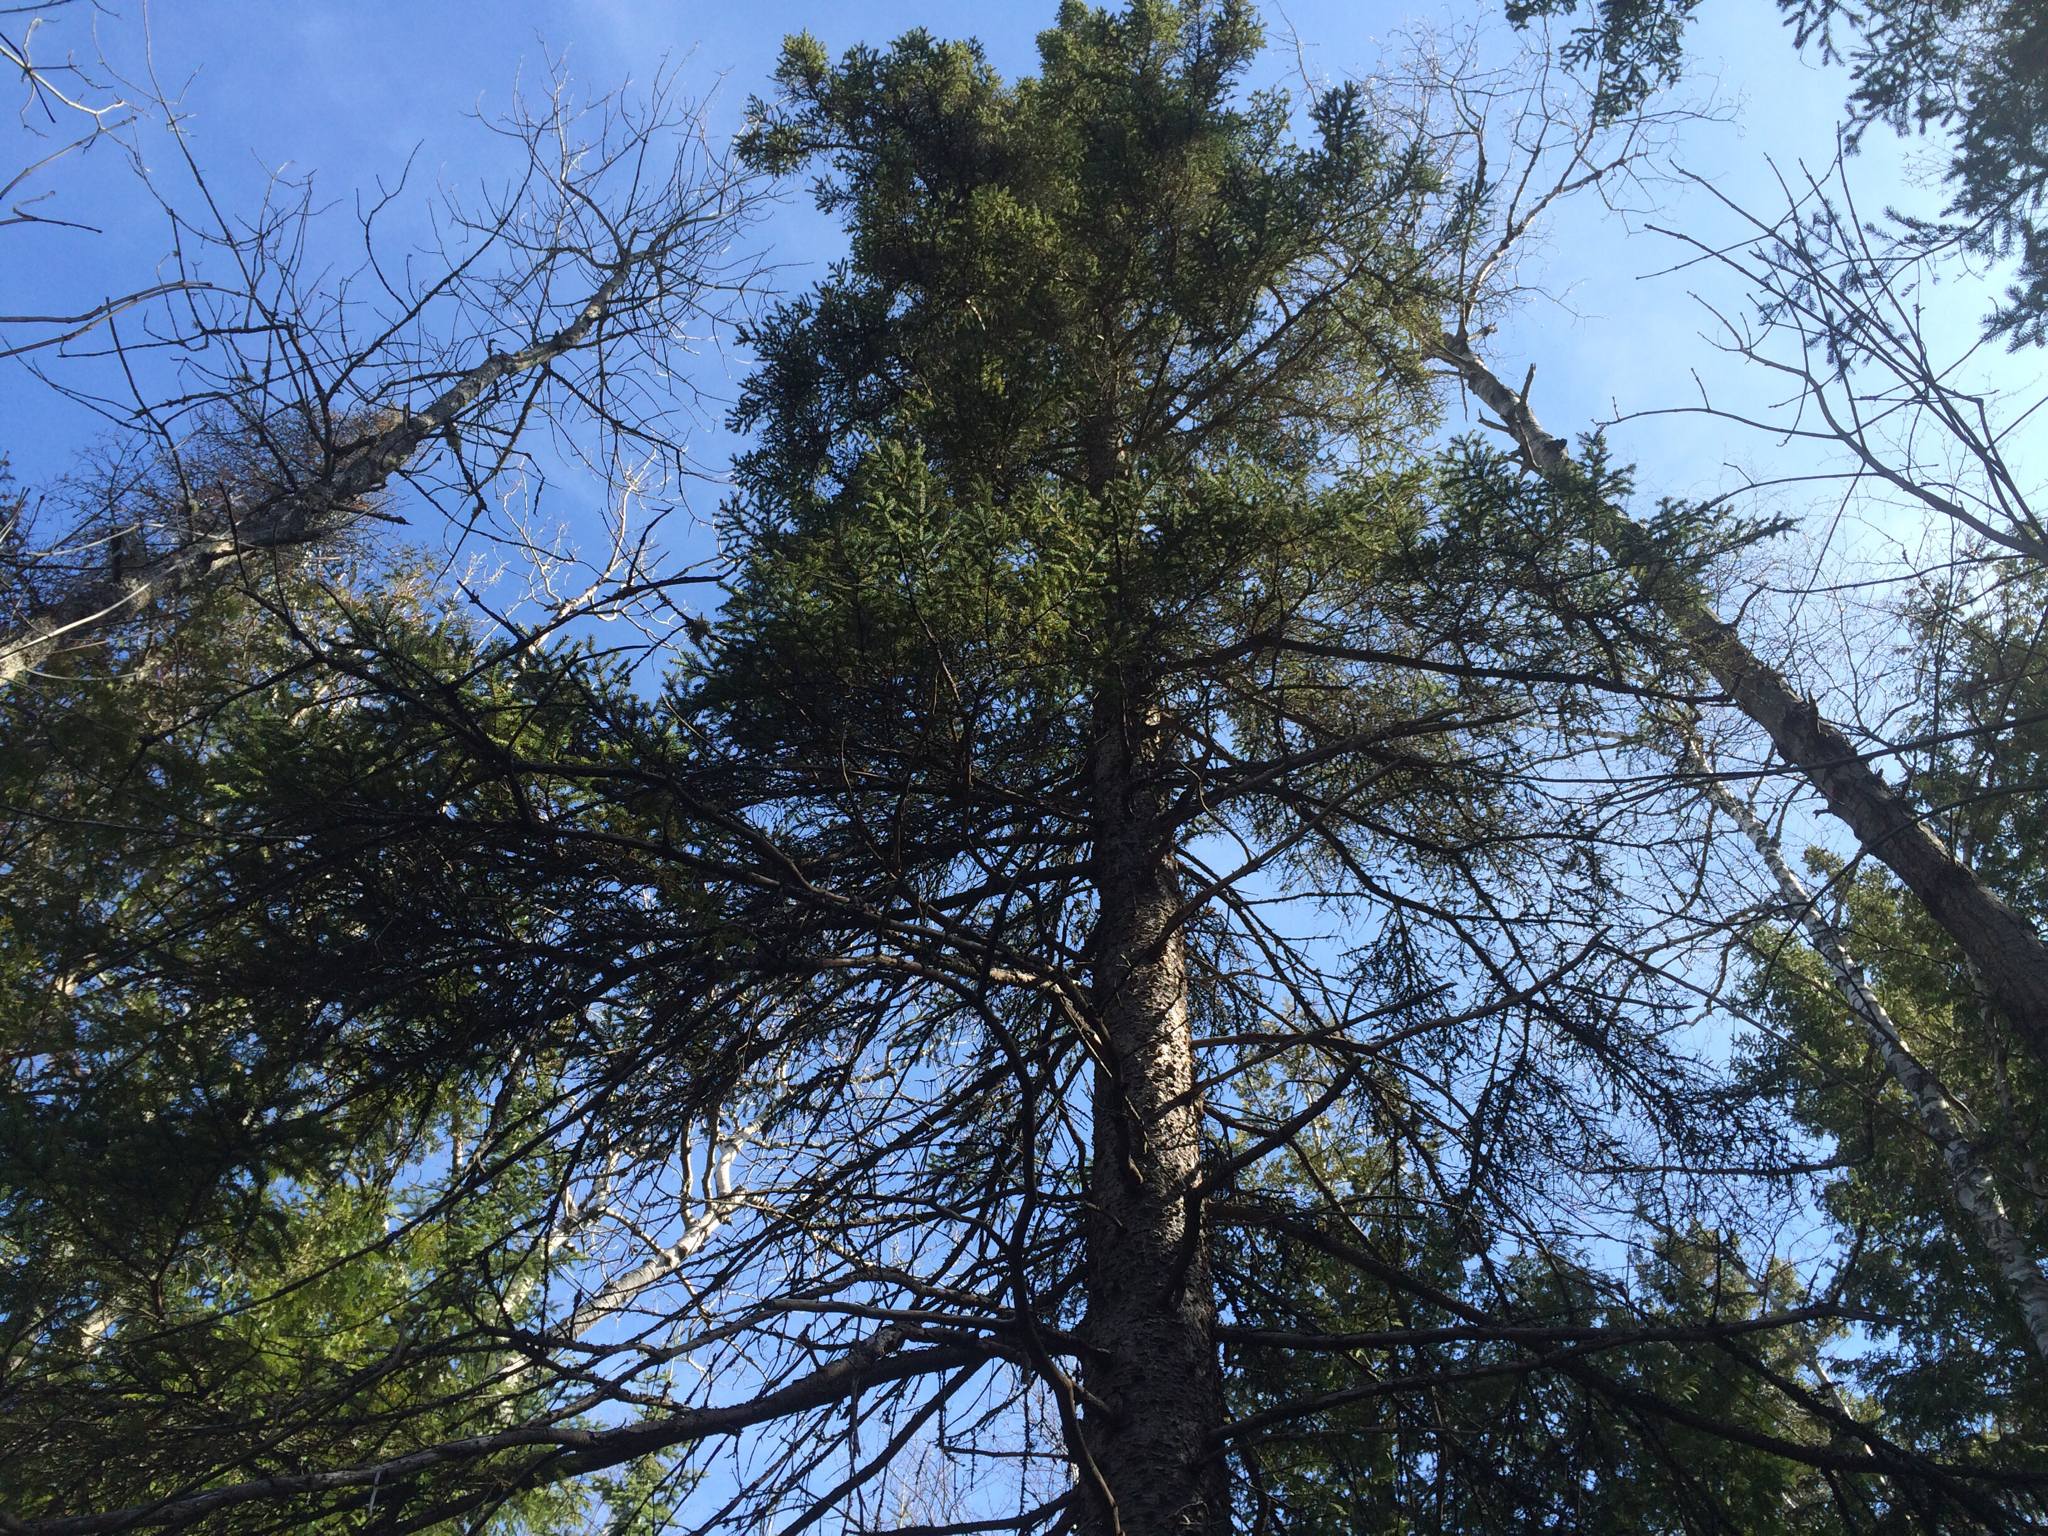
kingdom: Plantae
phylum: Tracheophyta
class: Pinopsida
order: Pinales
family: Pinaceae
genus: Picea
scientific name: Picea glauca
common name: White spruce
